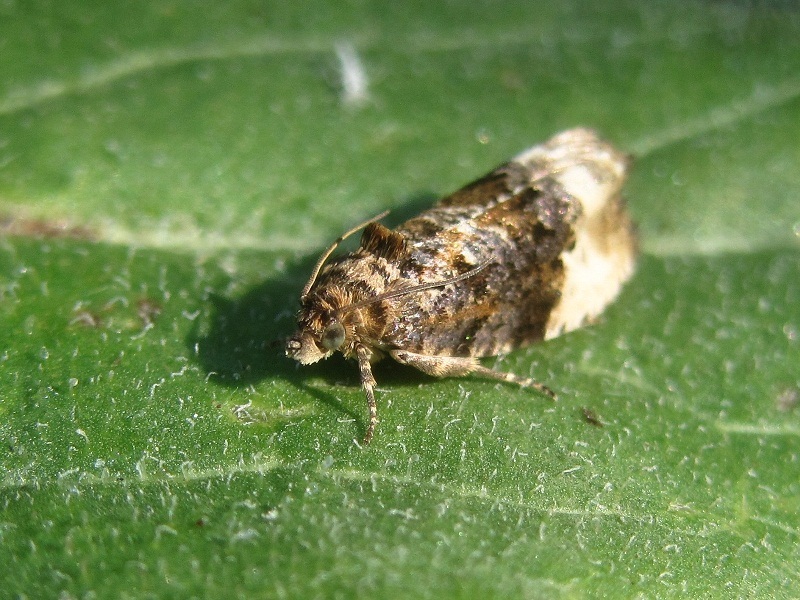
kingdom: Animalia
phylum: Arthropoda
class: Insecta
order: Lepidoptera
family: Tortricidae
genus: Hedya
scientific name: Hedya nubiferana
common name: Marbled orchard tortrix
